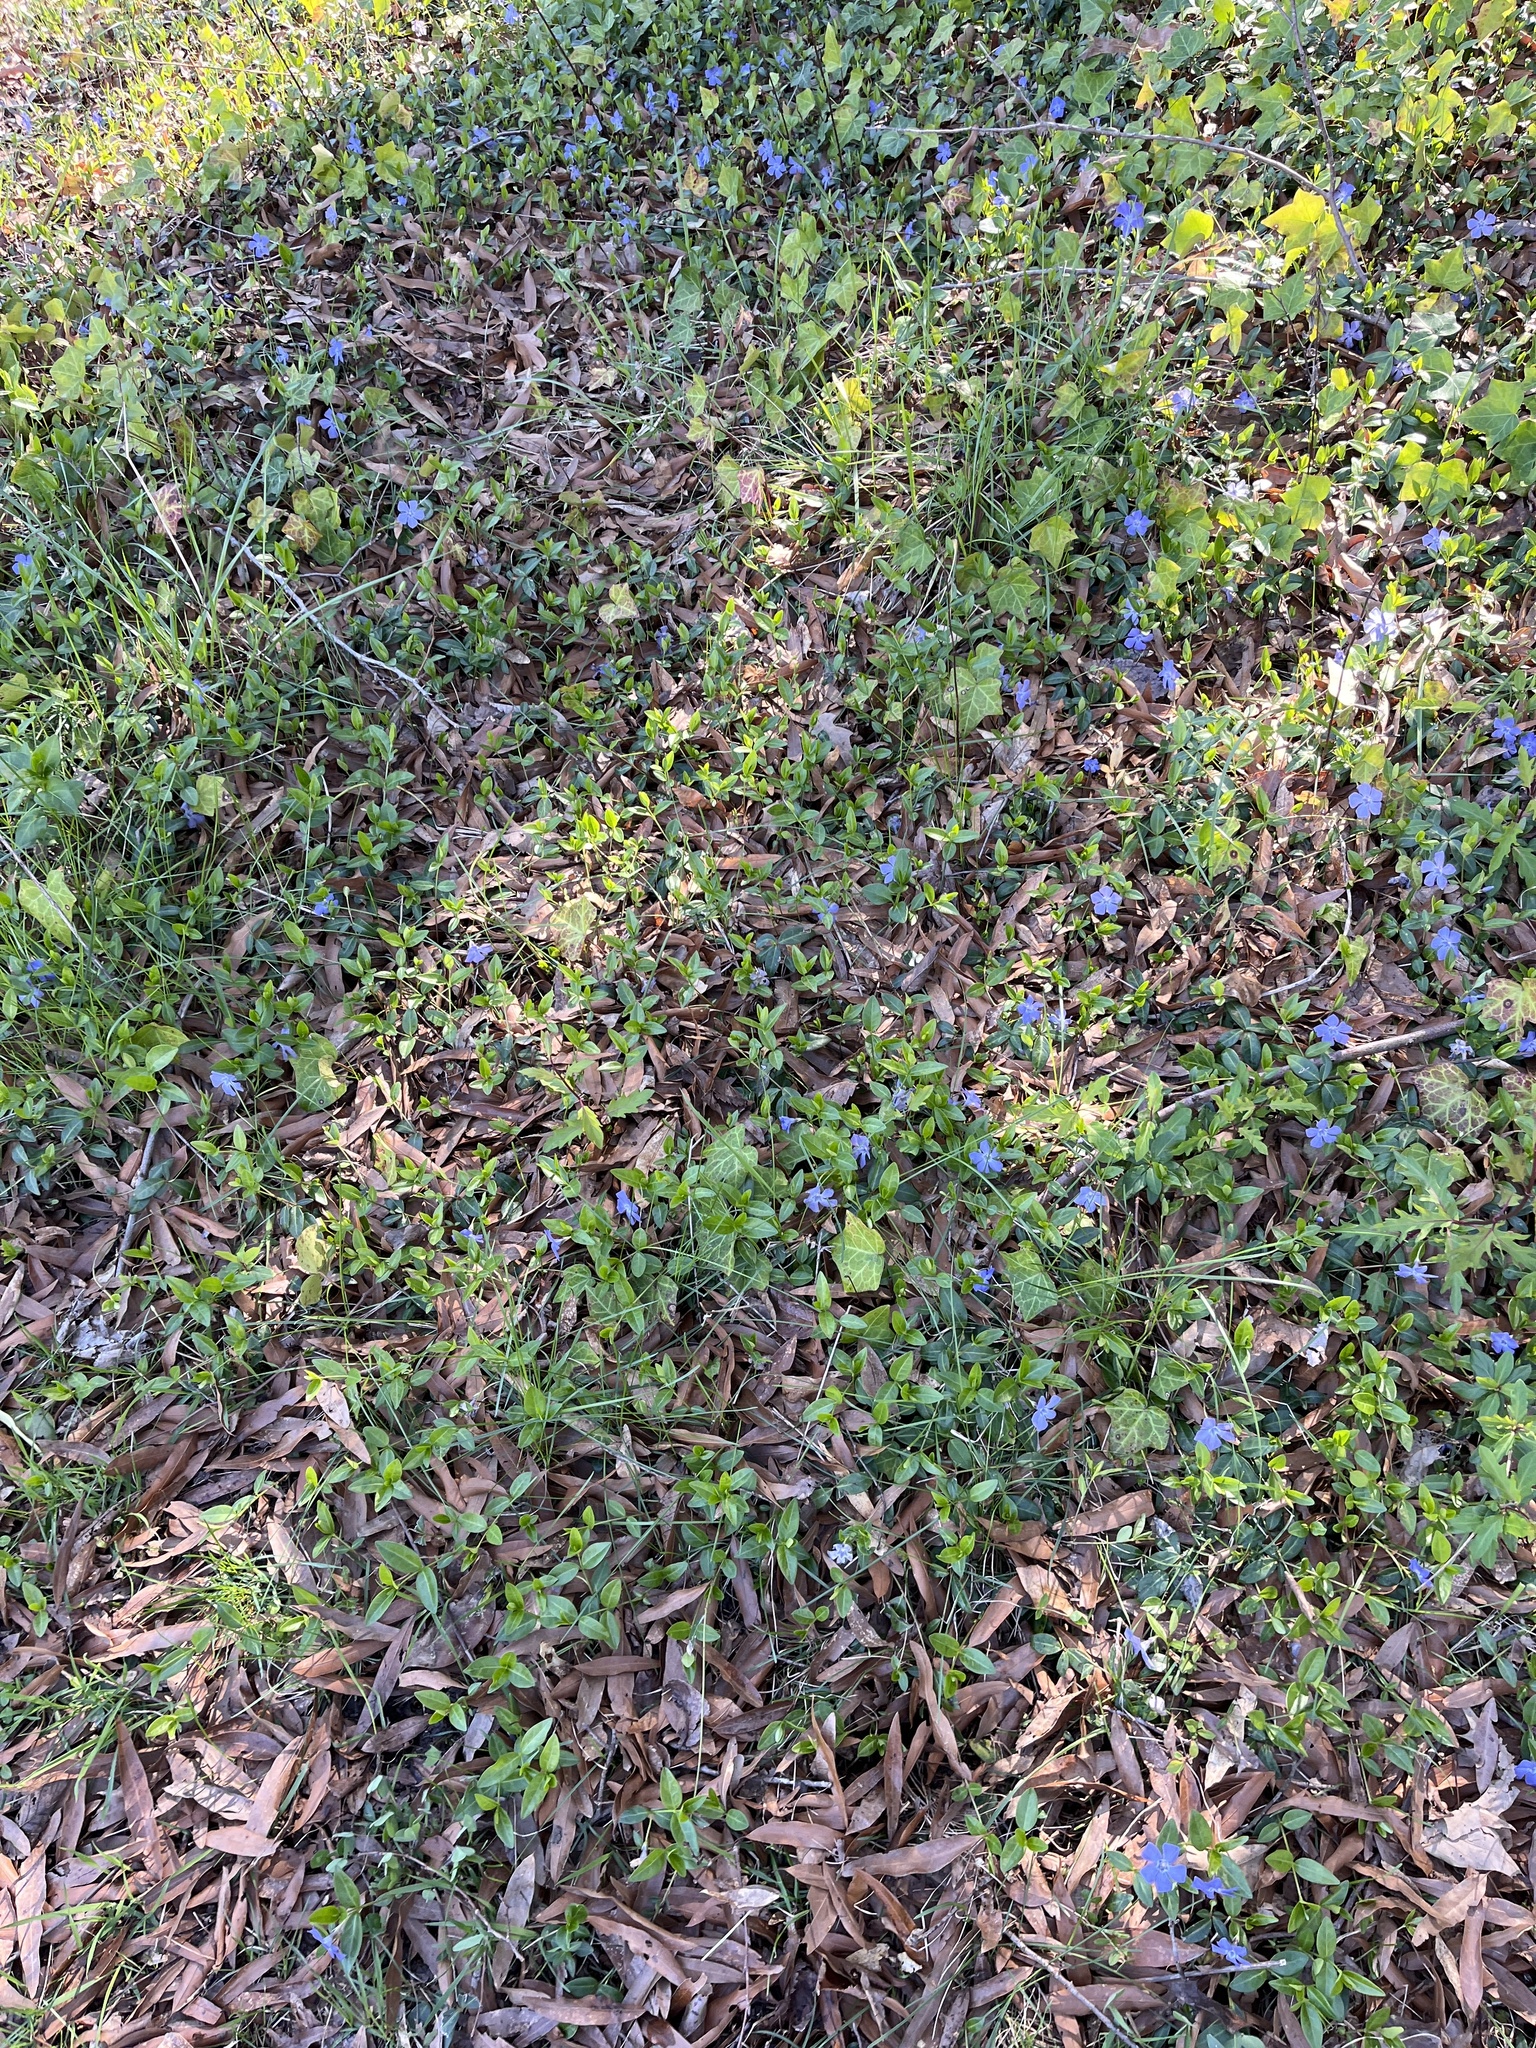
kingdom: Plantae
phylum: Tracheophyta
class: Magnoliopsida
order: Gentianales
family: Apocynaceae
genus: Vinca
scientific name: Vinca minor
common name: Lesser periwinkle
